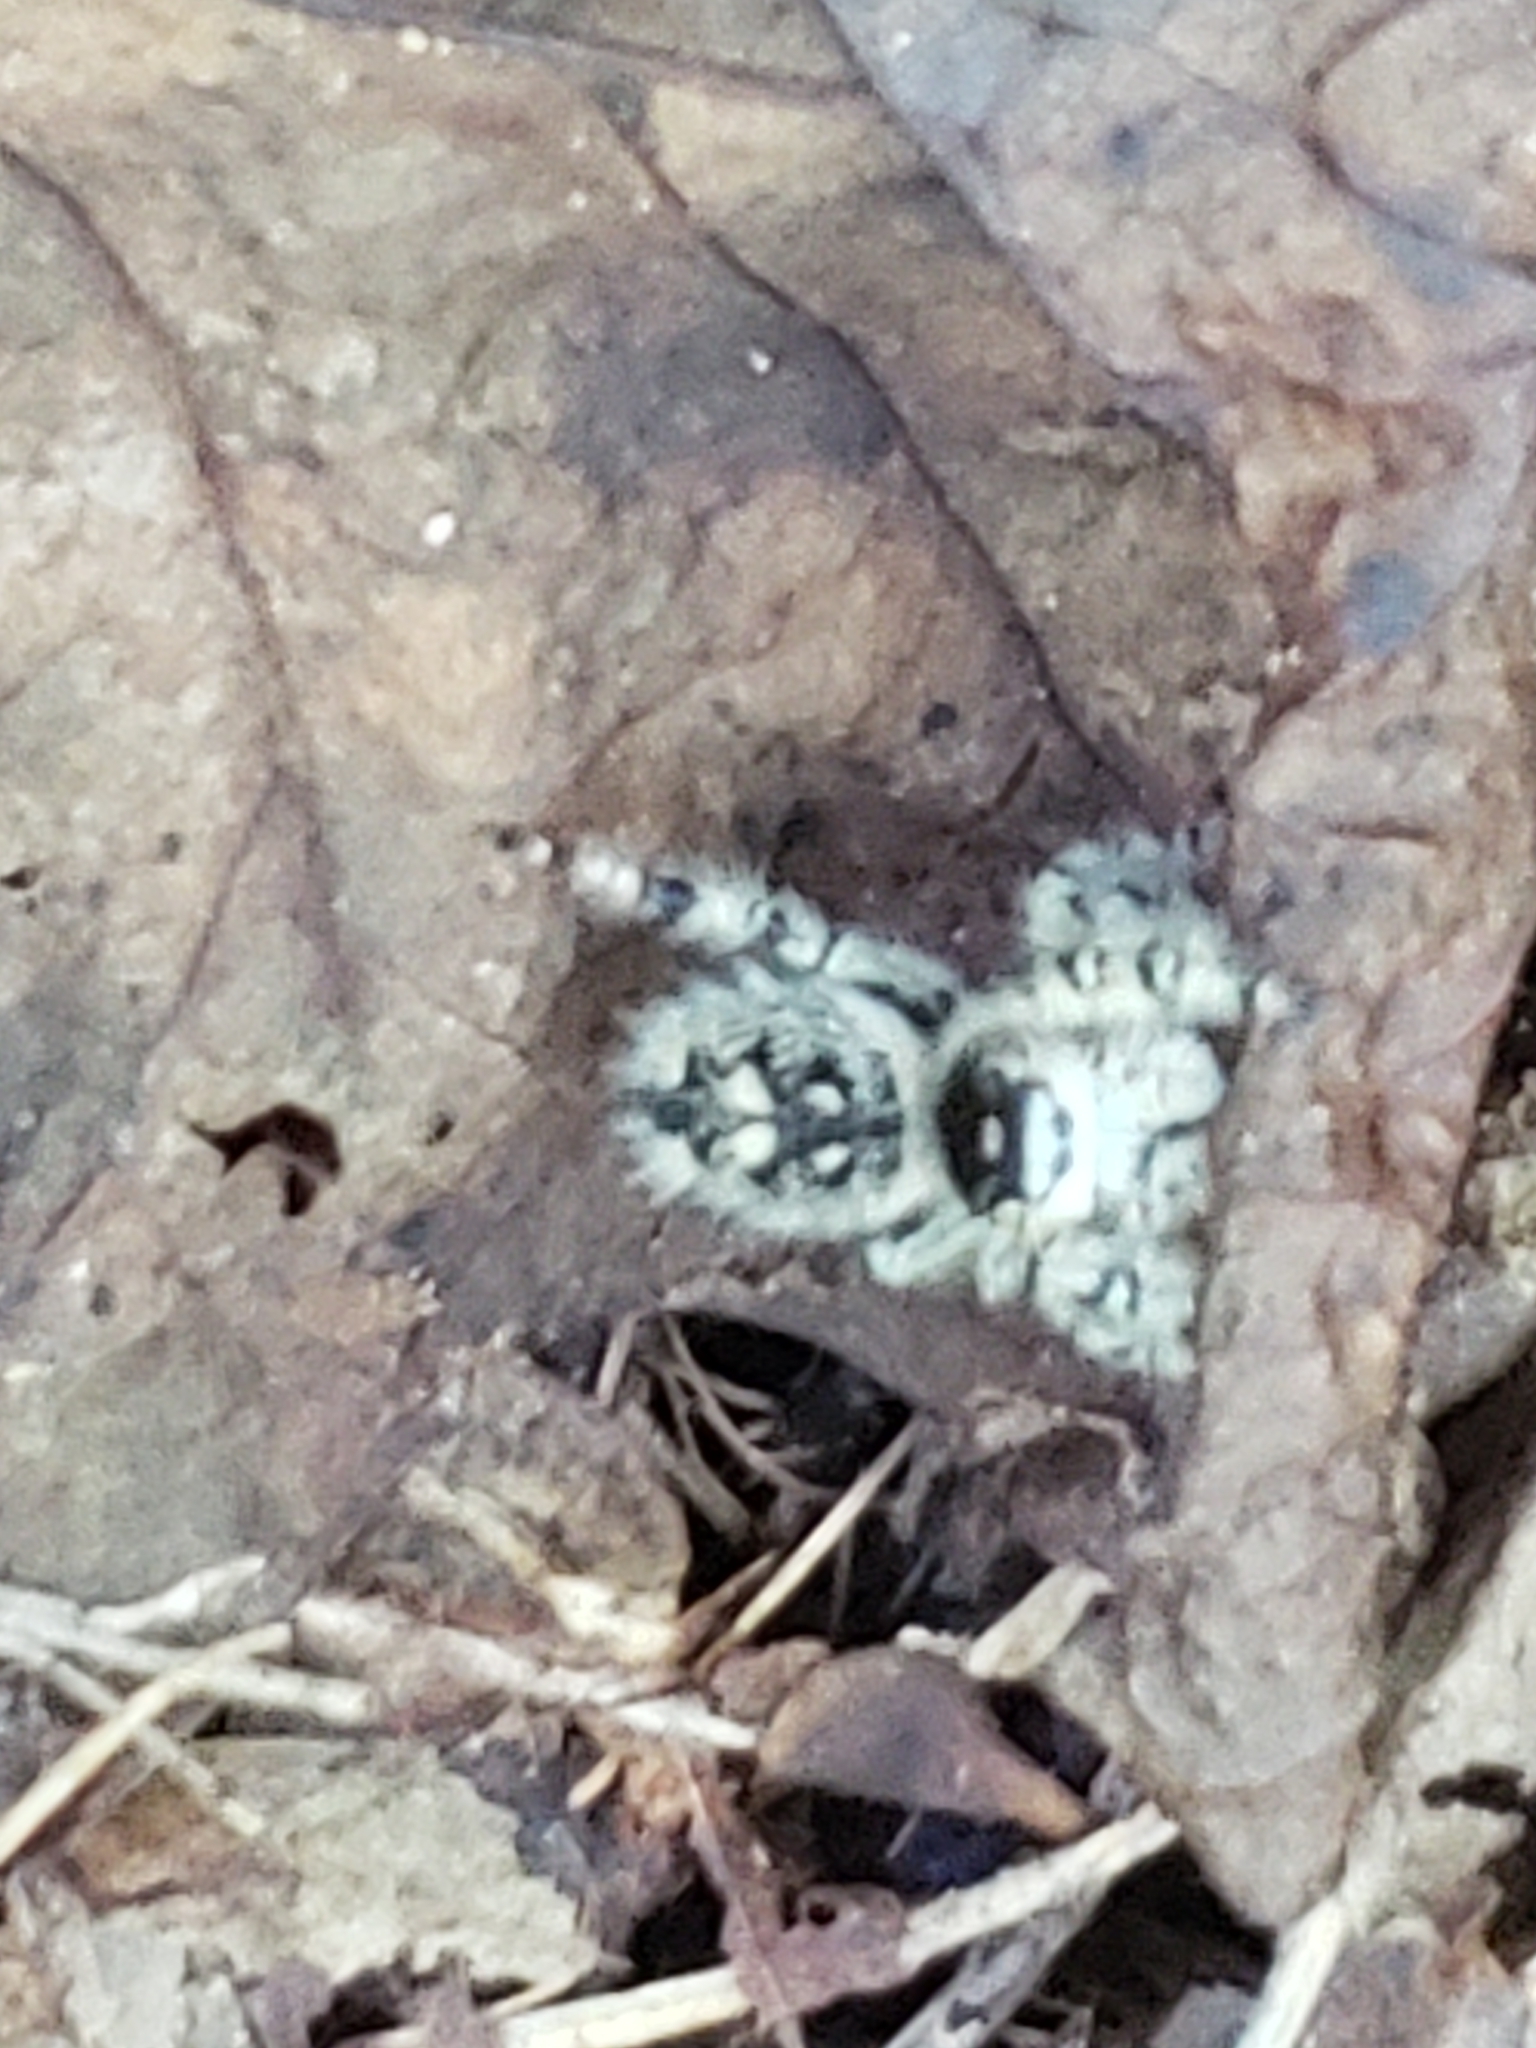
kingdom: Animalia
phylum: Arthropoda
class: Arachnida
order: Araneae
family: Salticidae
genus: Phidippus
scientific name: Phidippus otiosus
